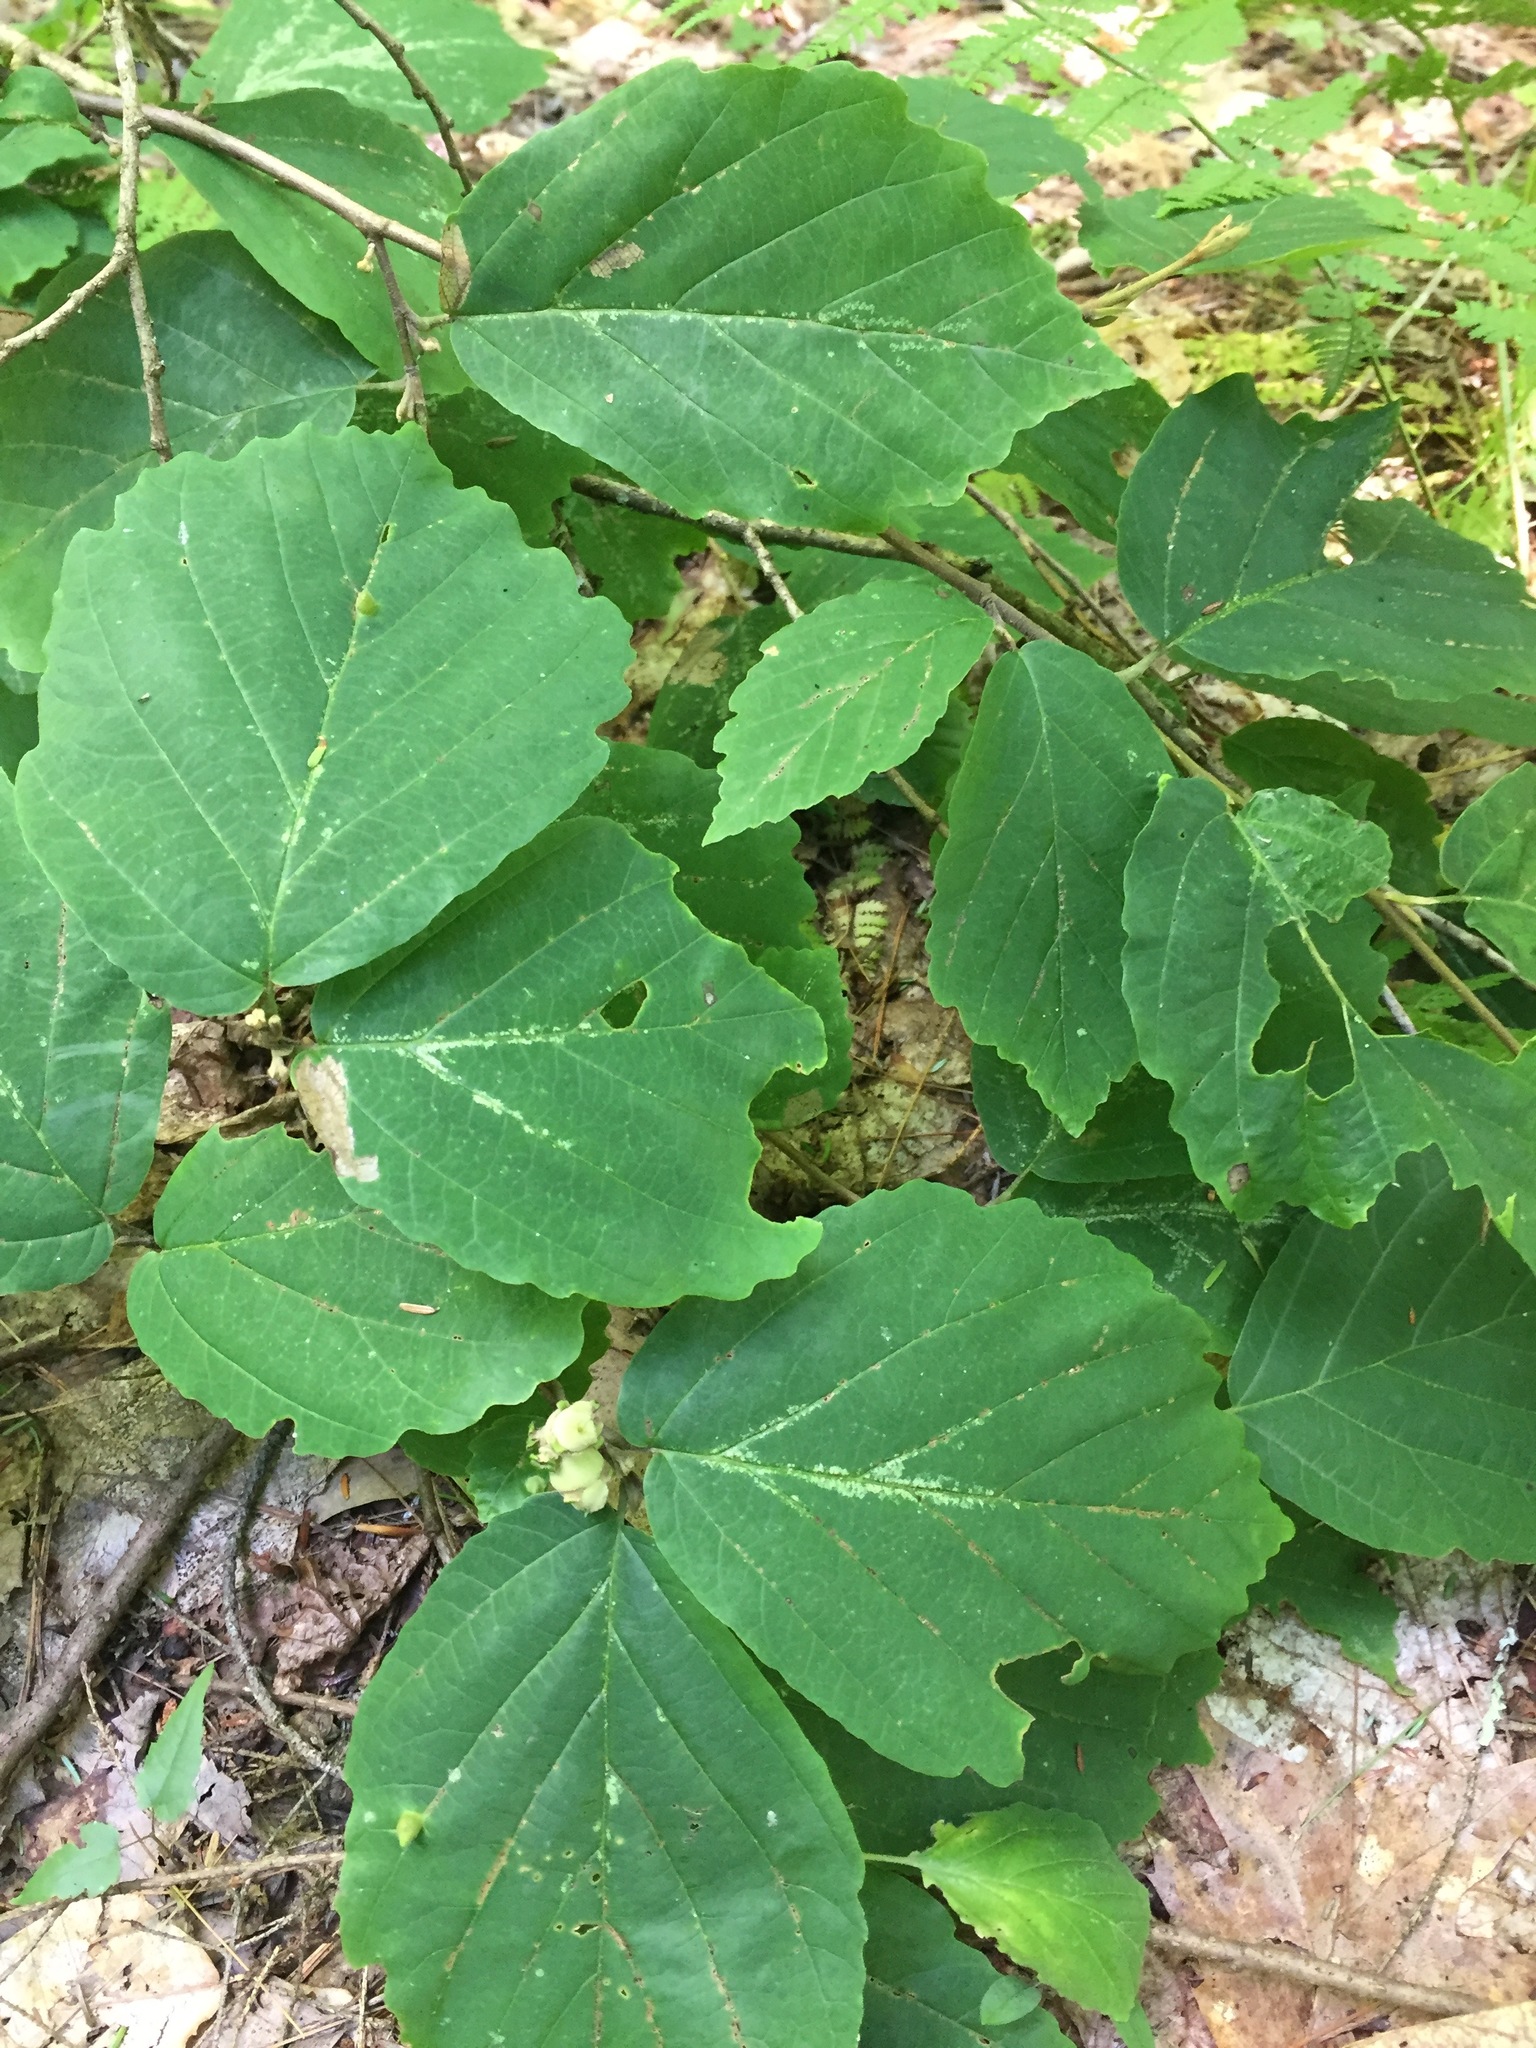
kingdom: Plantae
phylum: Tracheophyta
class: Magnoliopsida
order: Saxifragales
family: Hamamelidaceae
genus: Hamamelis
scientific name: Hamamelis virginiana
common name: Witch-hazel
